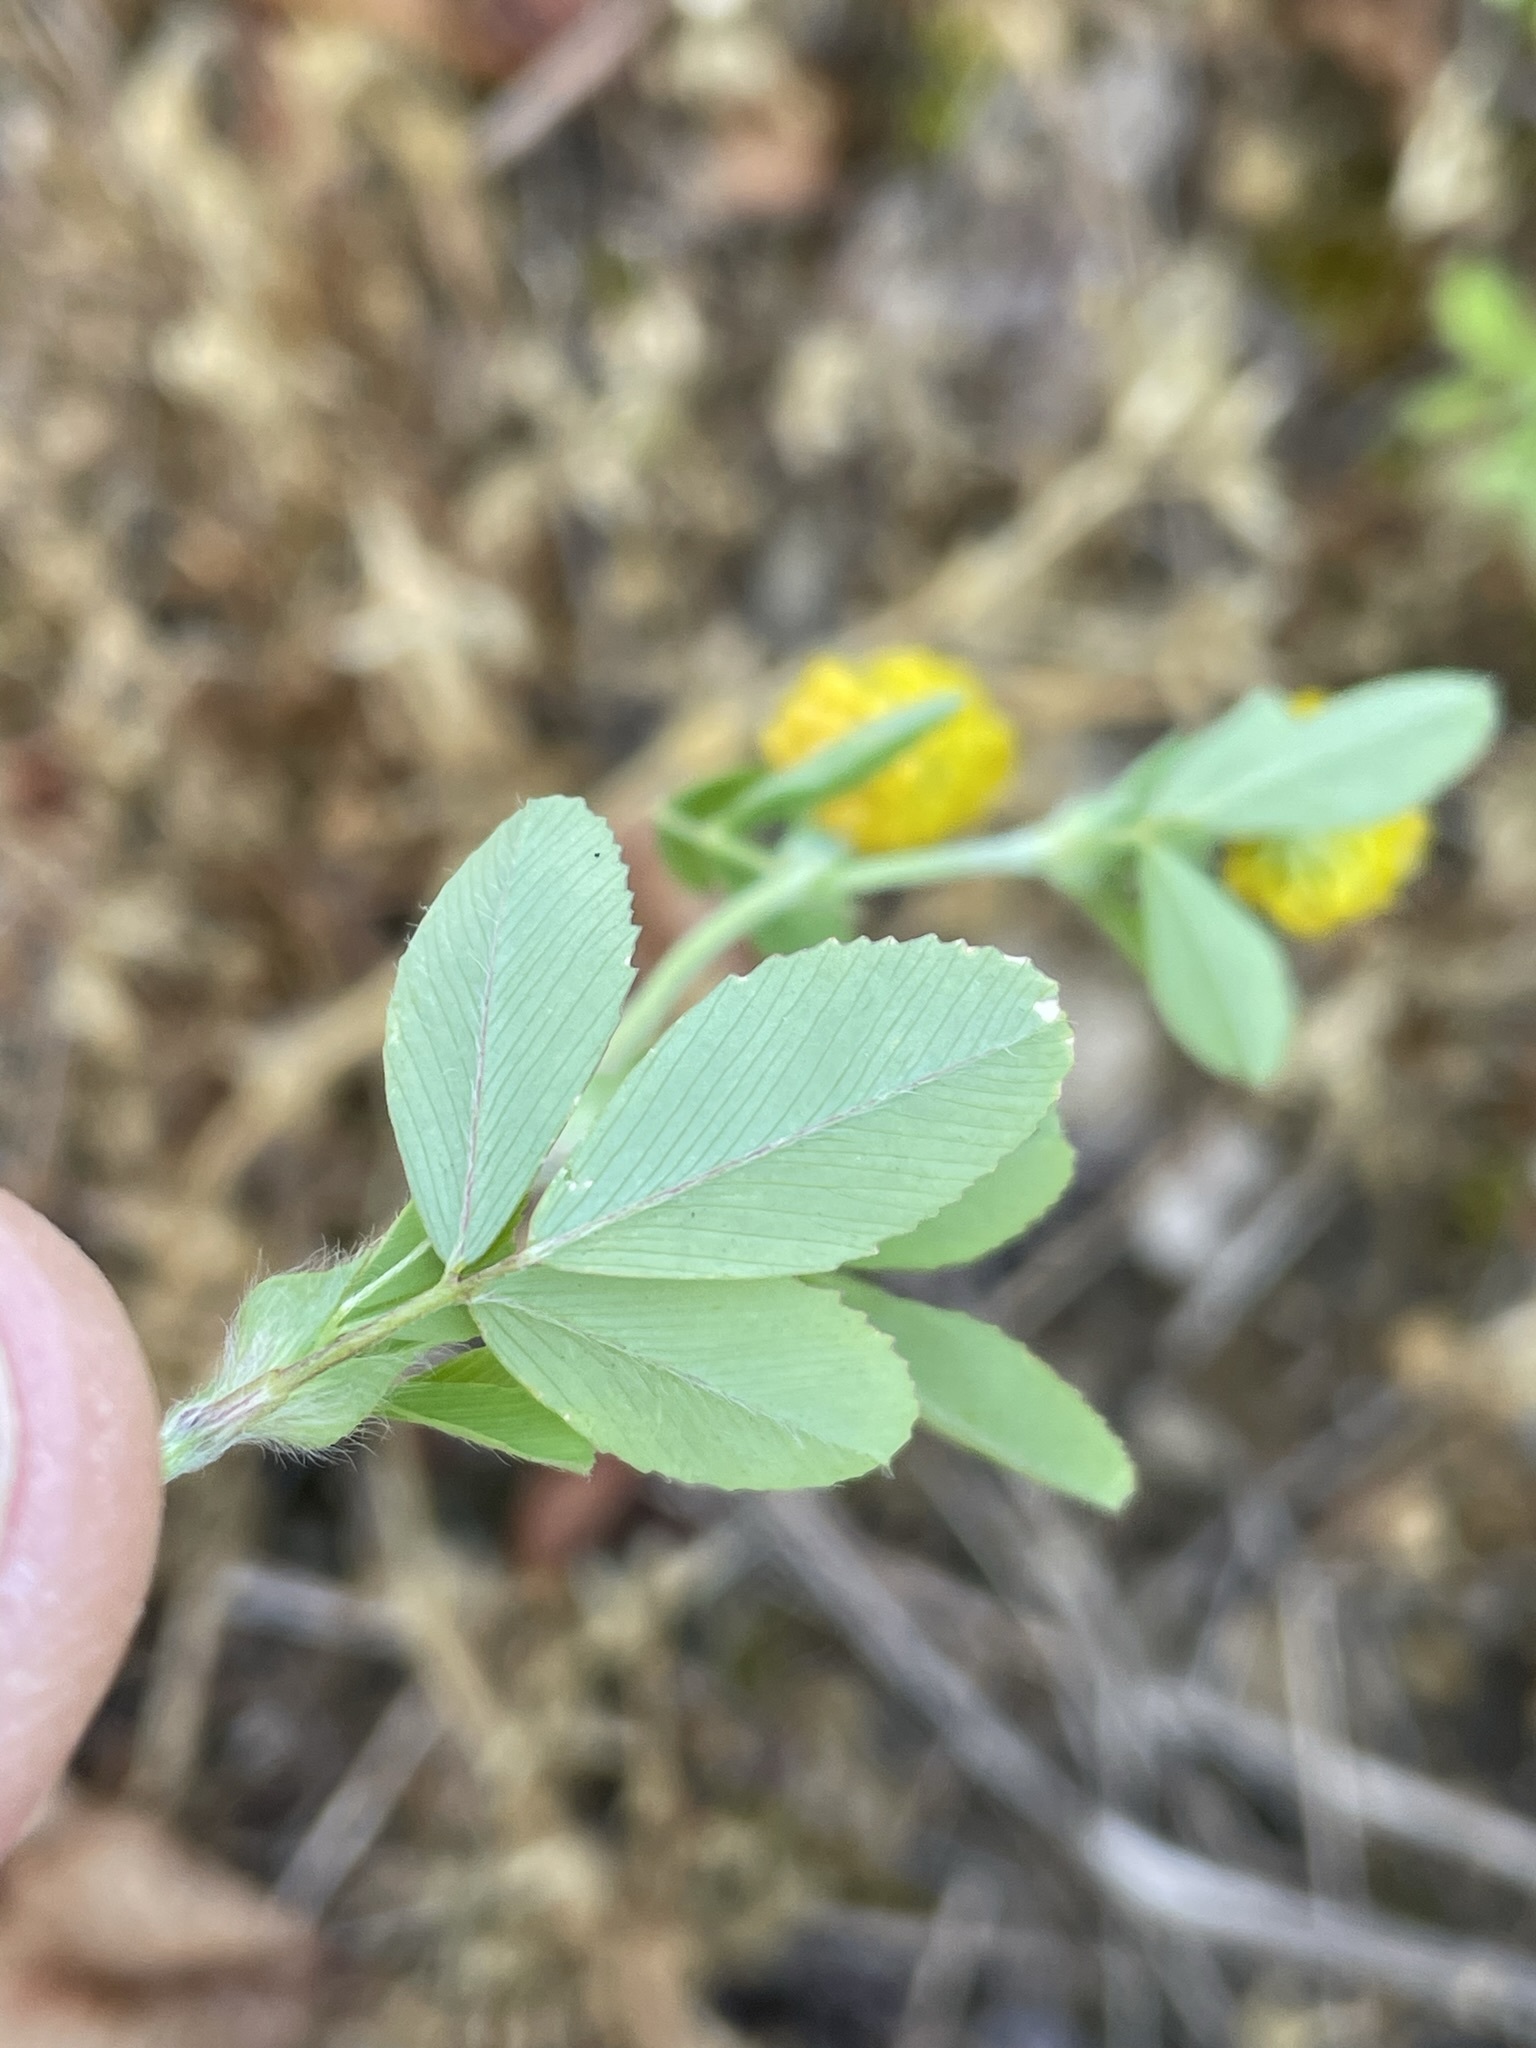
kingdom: Plantae
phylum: Tracheophyta
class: Magnoliopsida
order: Fabales
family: Fabaceae
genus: Trifolium
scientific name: Trifolium campestre
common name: Field clover
